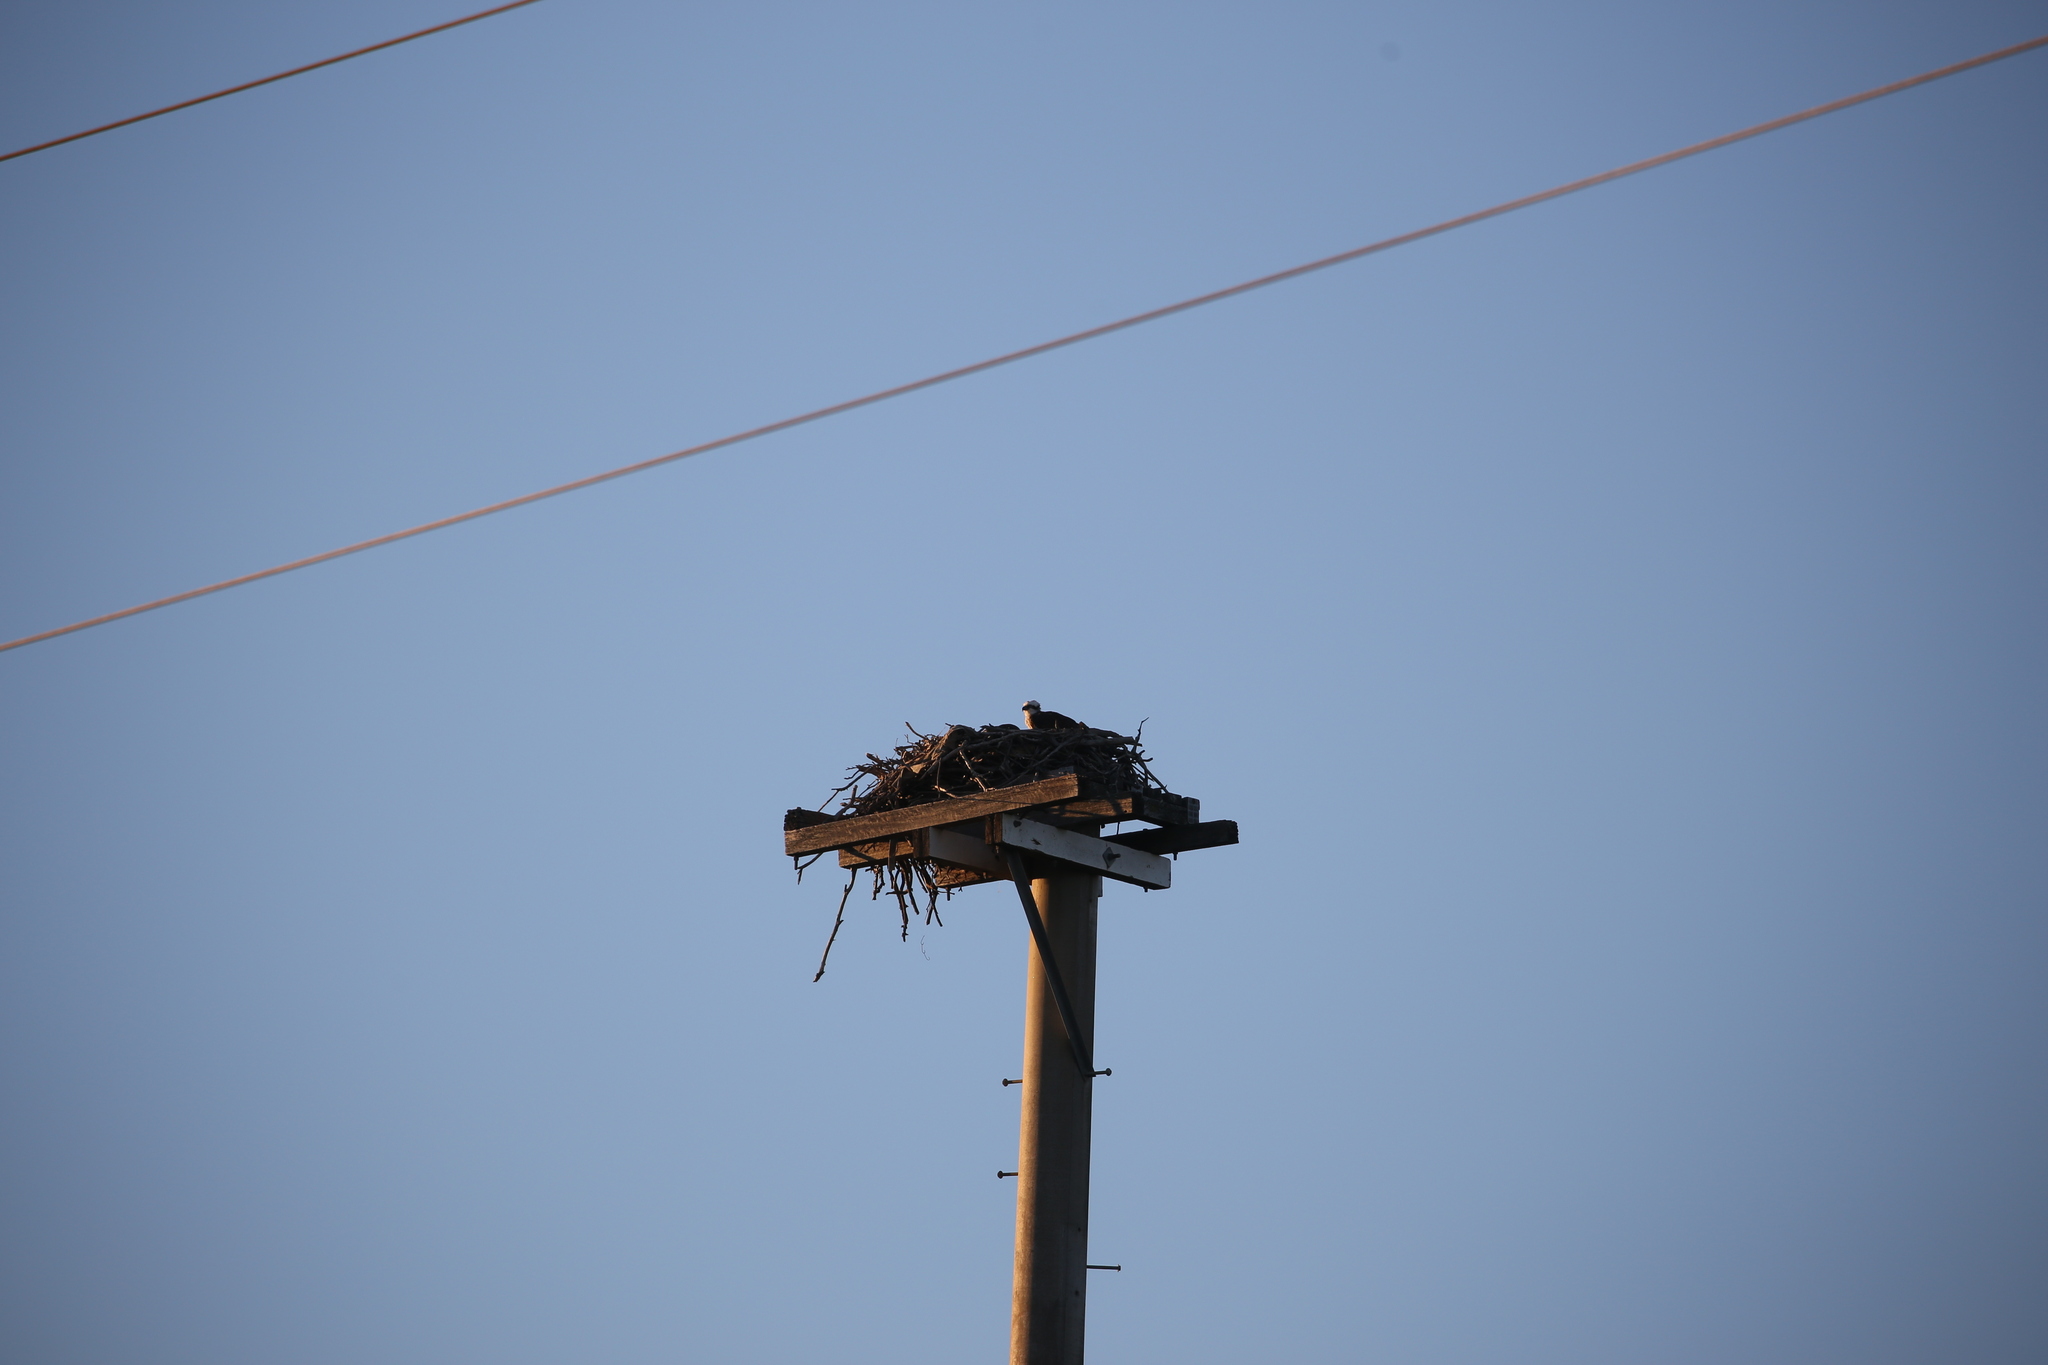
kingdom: Animalia
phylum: Chordata
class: Aves
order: Accipitriformes
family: Pandionidae
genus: Pandion
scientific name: Pandion haliaetus
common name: Osprey
